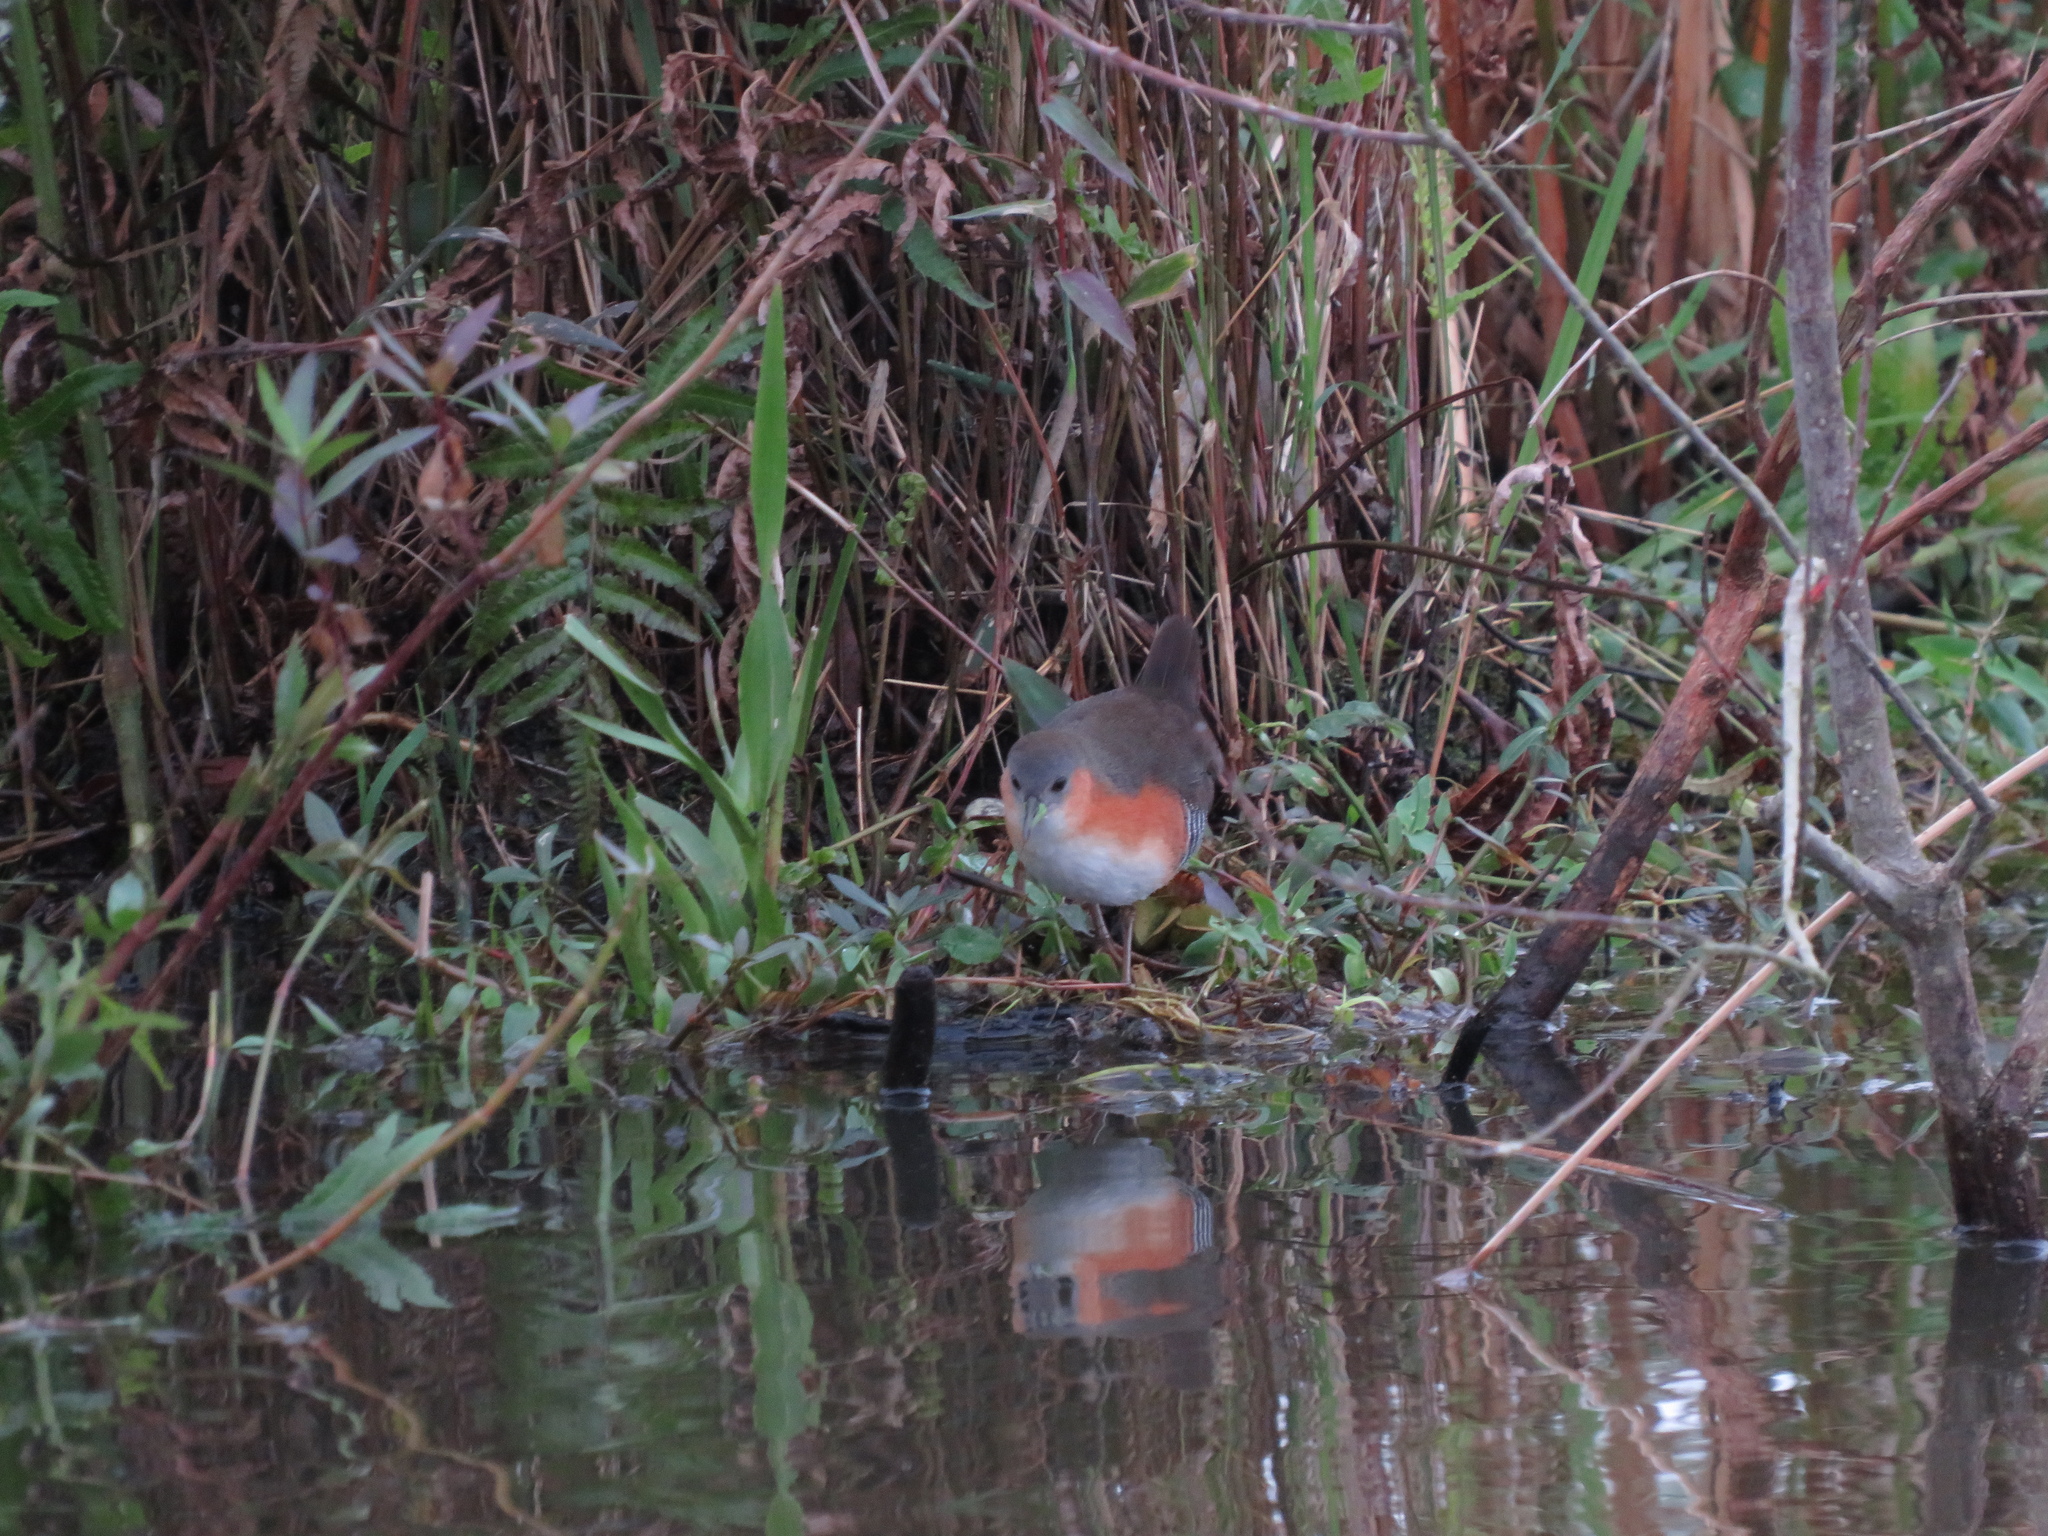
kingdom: Animalia
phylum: Chordata
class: Aves
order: Gruiformes
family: Rallidae
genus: Laterallus
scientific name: Laterallus melanophaius
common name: Rufous-sided crake
